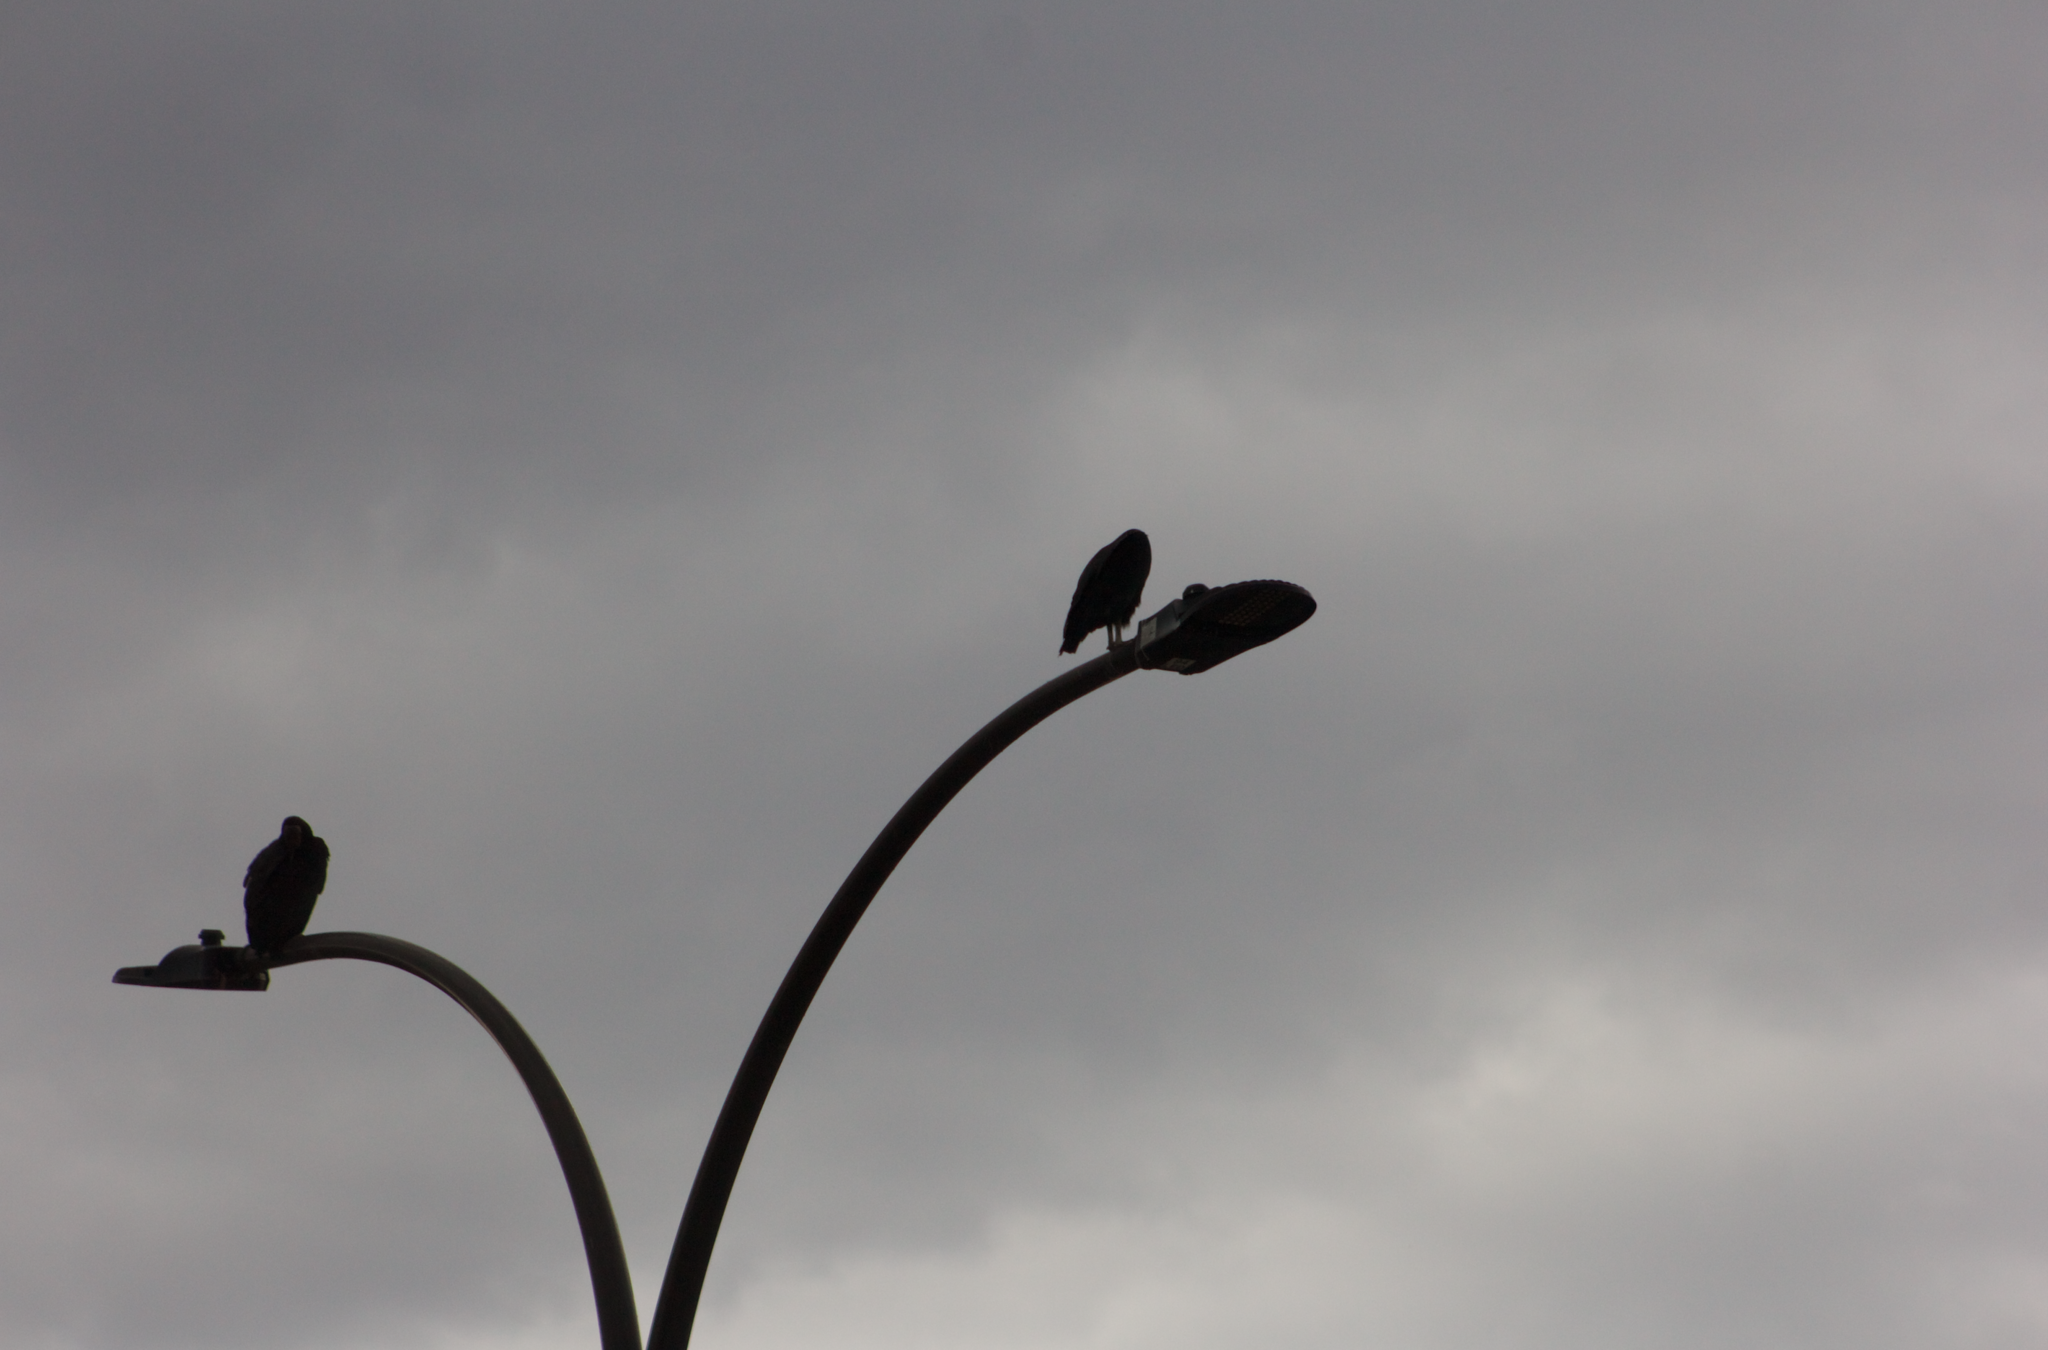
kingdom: Animalia
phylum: Chordata
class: Aves
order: Accipitriformes
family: Cathartidae
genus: Coragyps
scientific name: Coragyps atratus
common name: Black vulture
